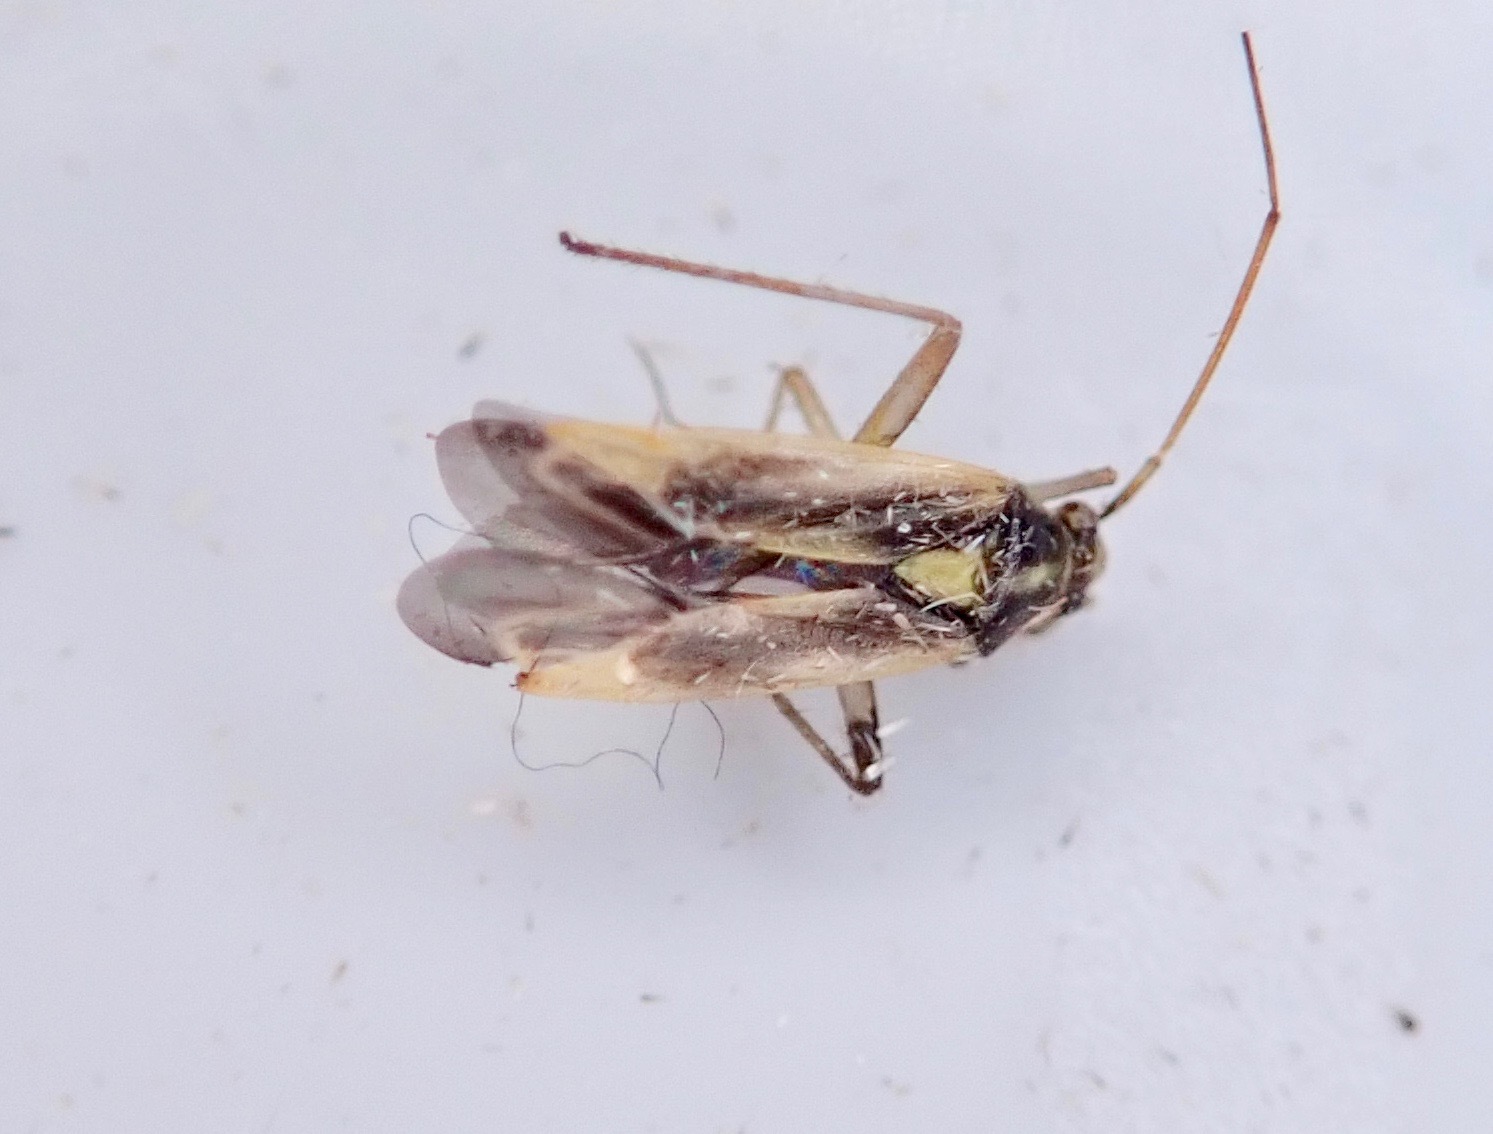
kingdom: Animalia
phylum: Arthropoda
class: Insecta
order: Hemiptera
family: Miridae
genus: Stenotus
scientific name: Stenotus binotatus
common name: Plant bug
